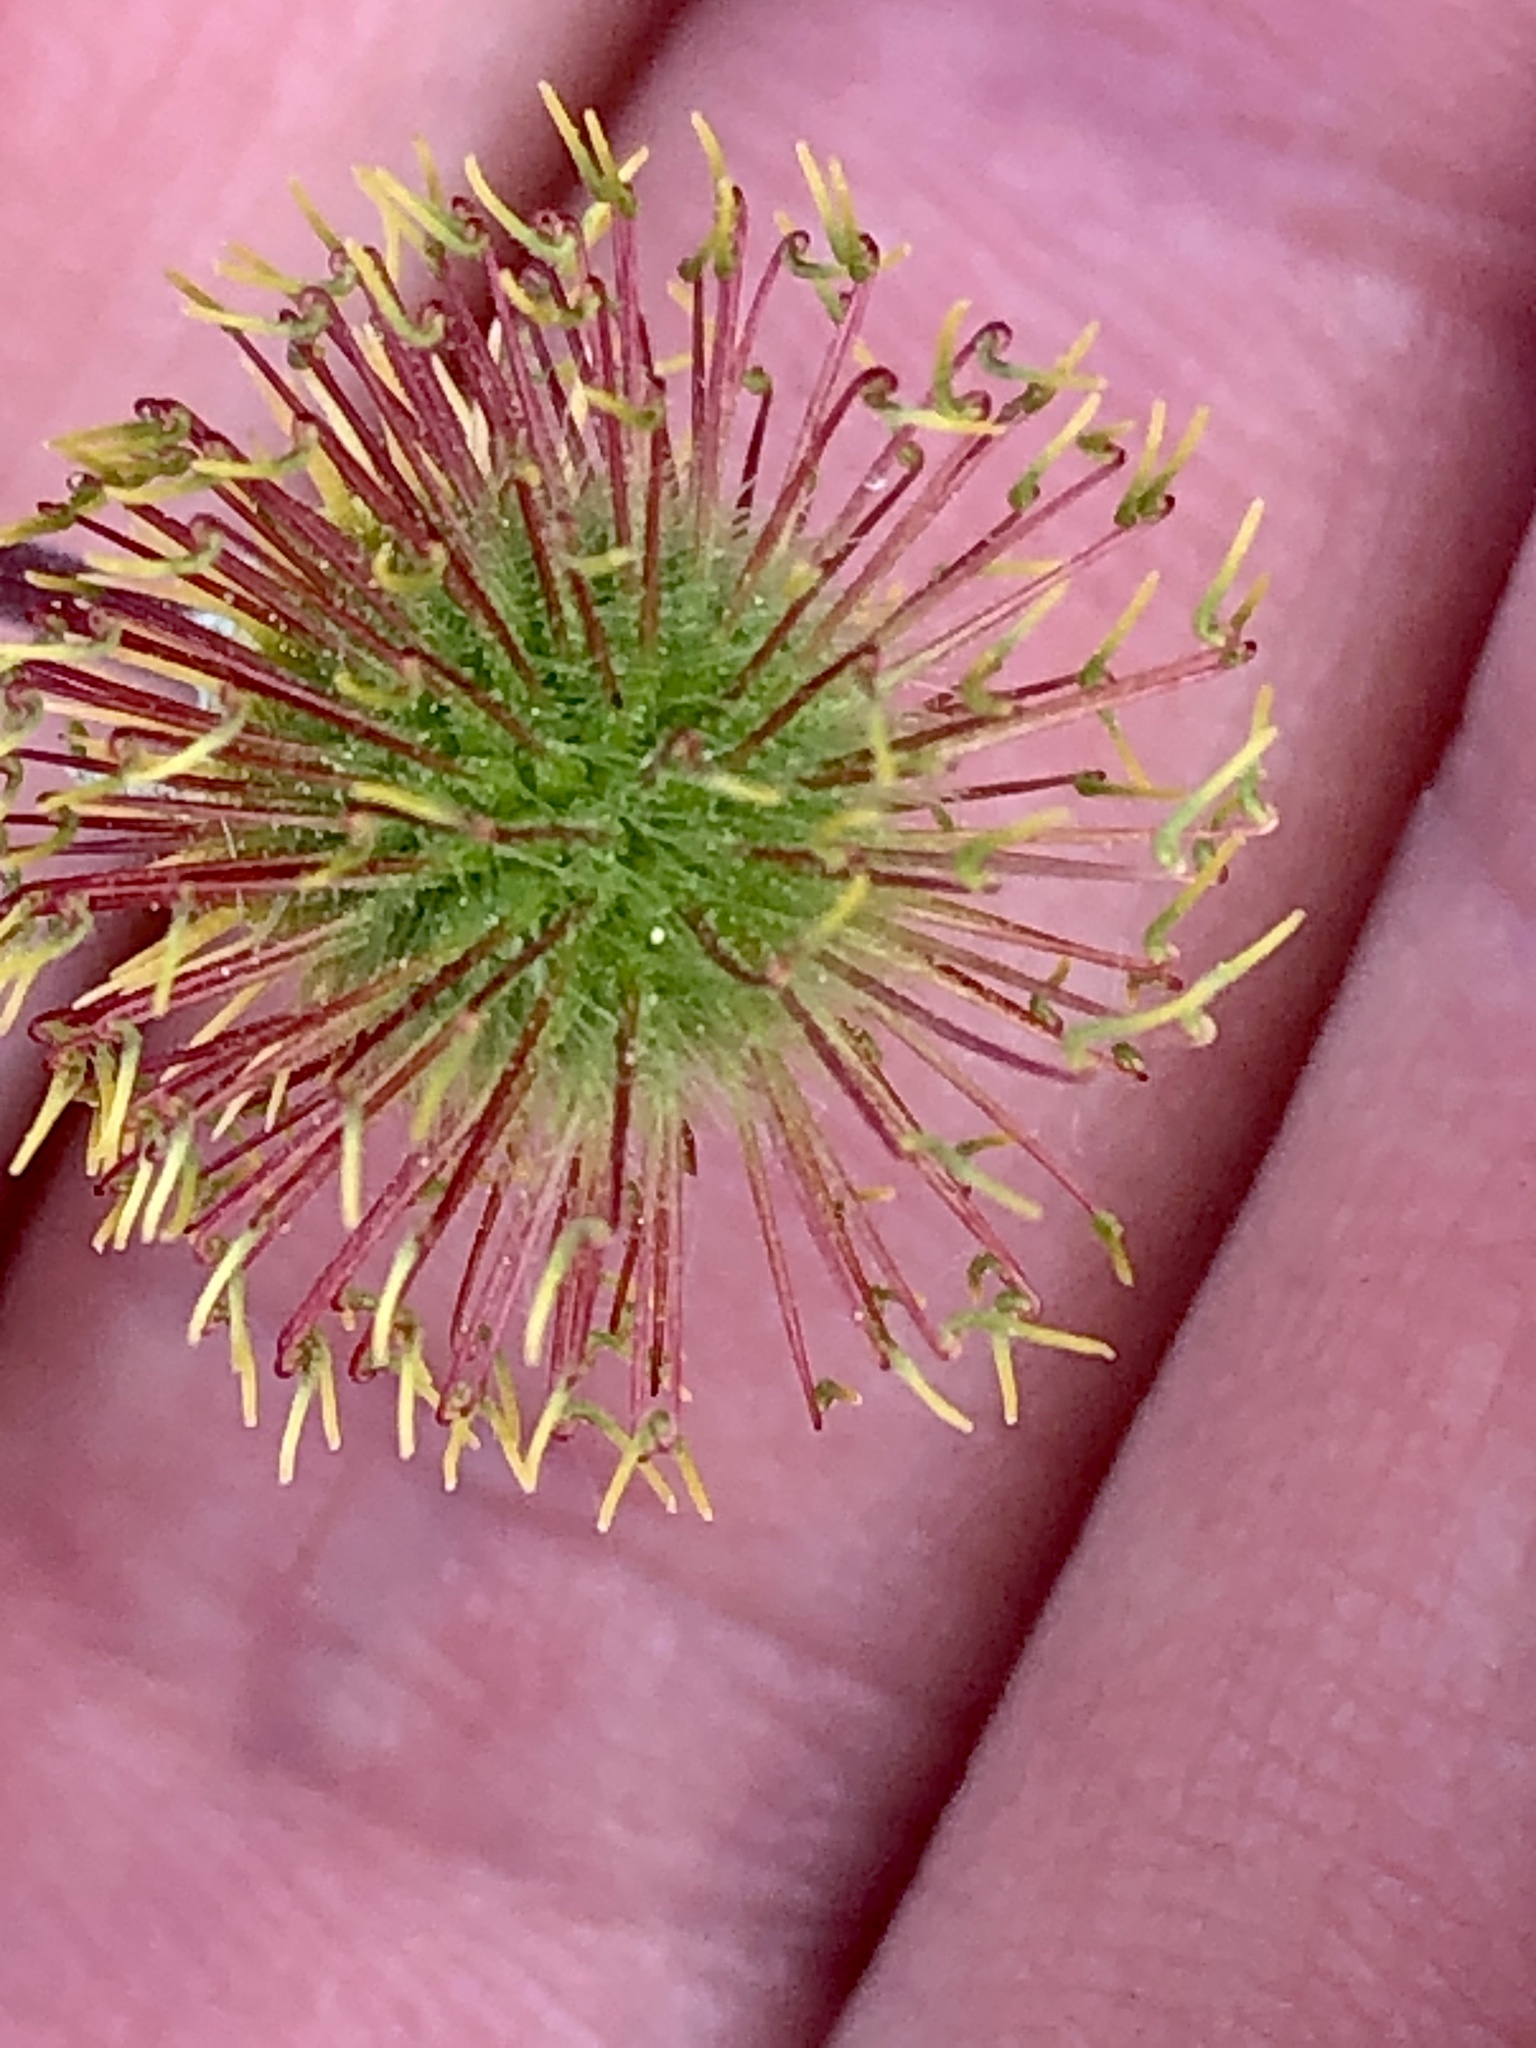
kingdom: Plantae
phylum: Tracheophyta
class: Magnoliopsida
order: Rosales
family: Rosaceae
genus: Geum
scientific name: Geum macrophyllum
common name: Large-leaved avens
